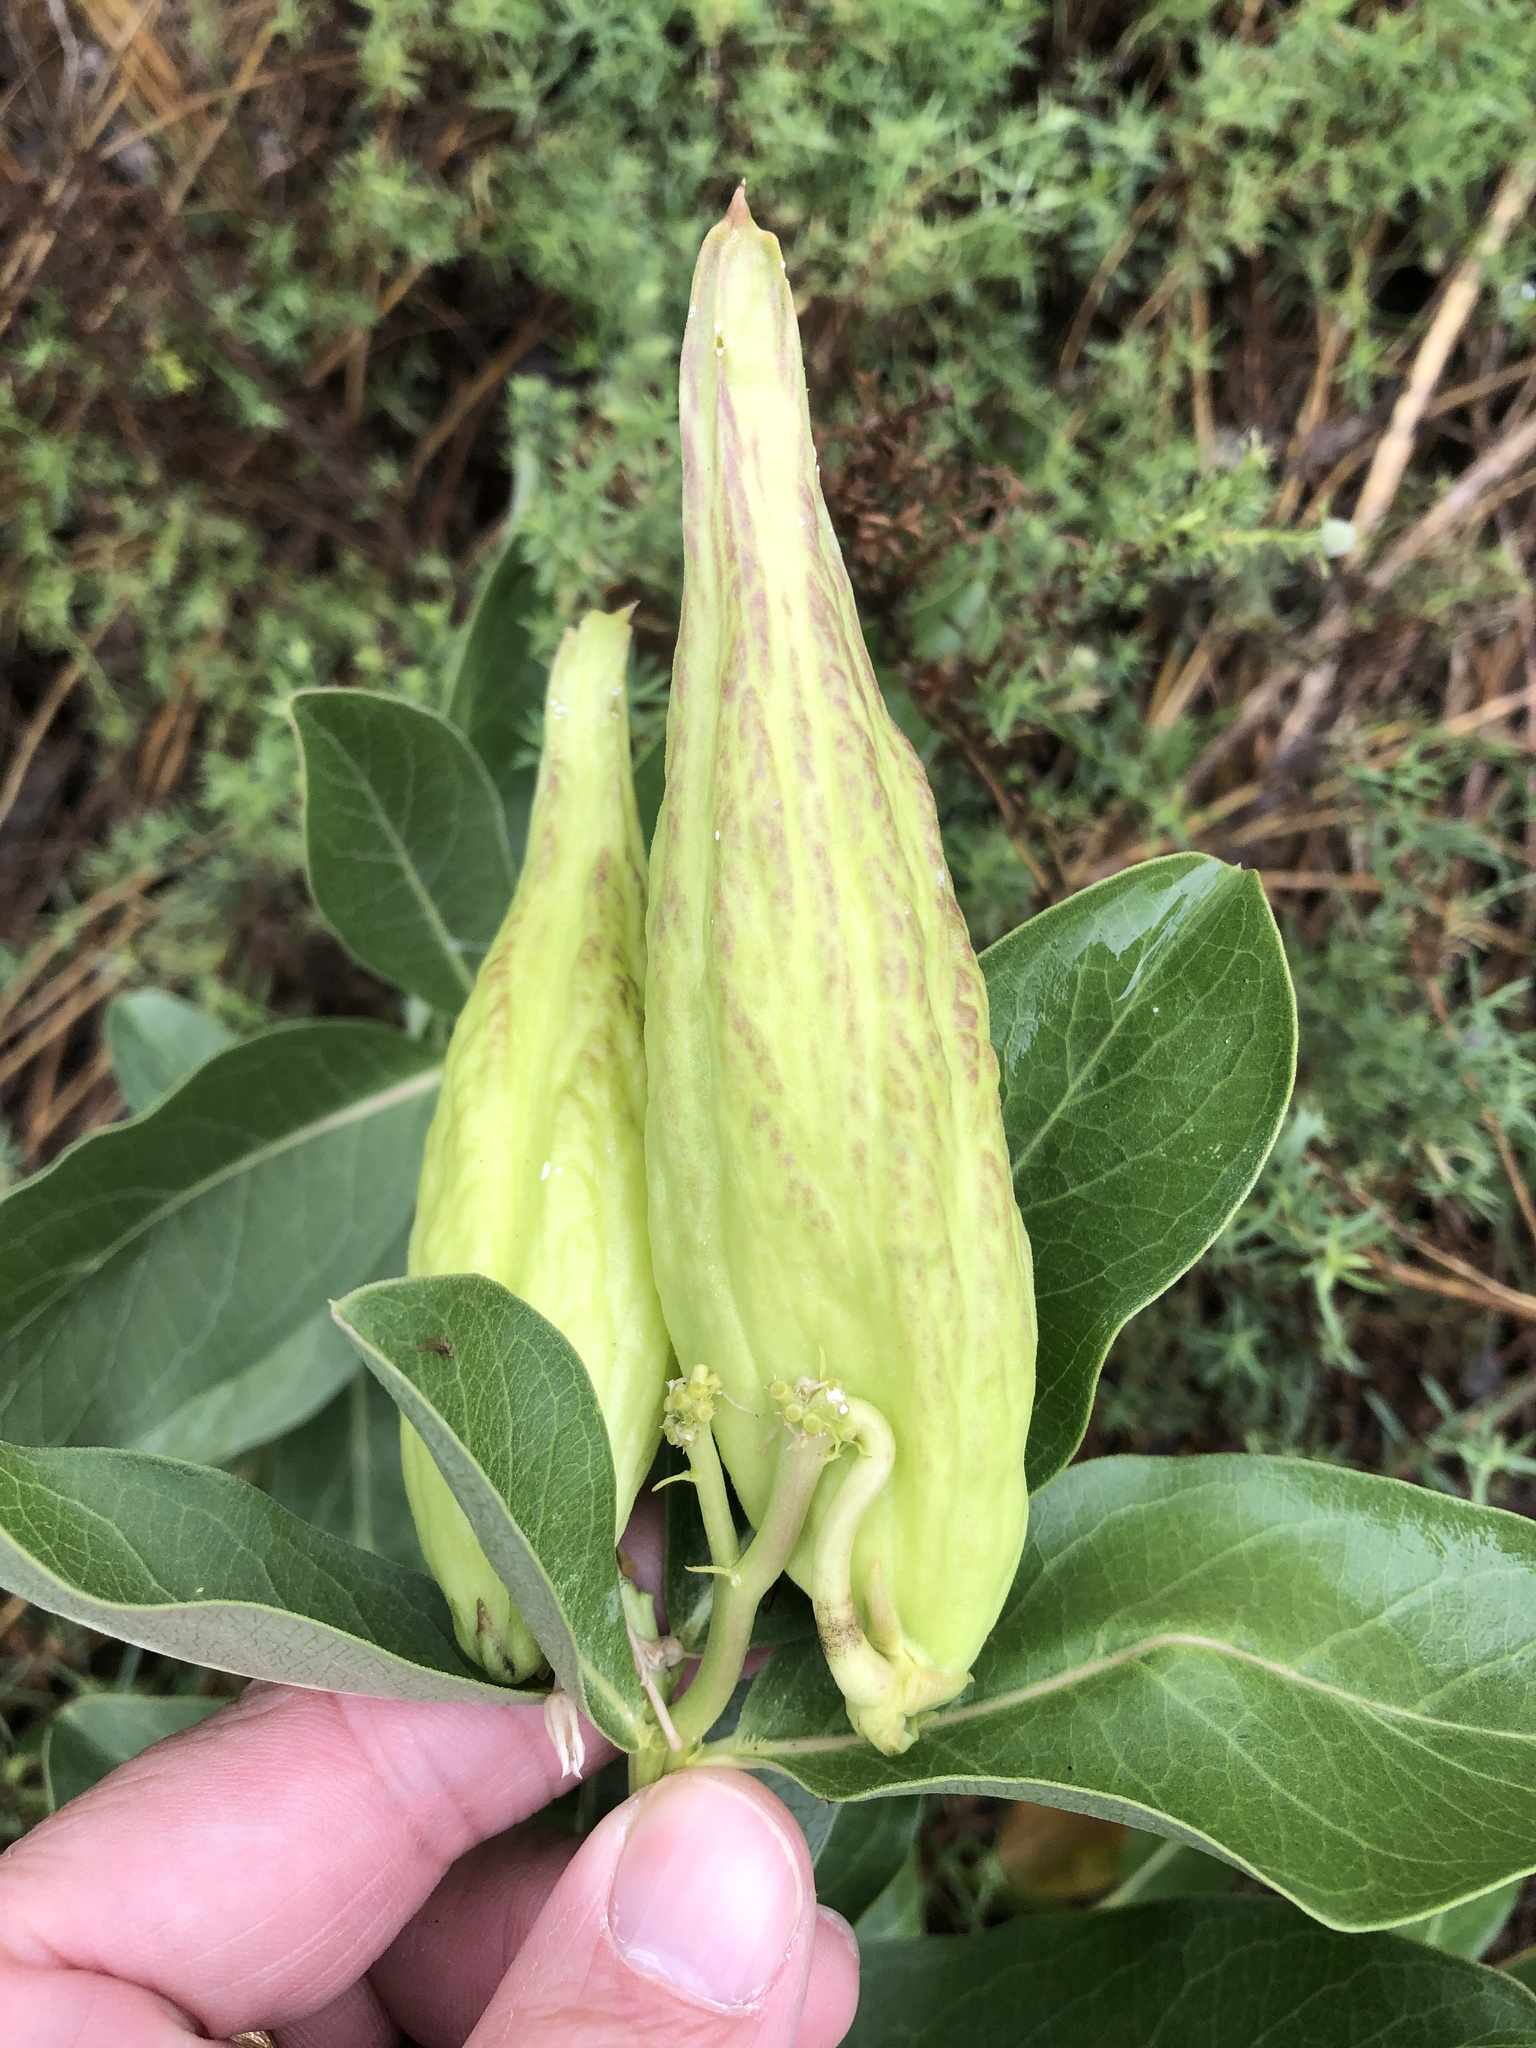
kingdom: Plantae
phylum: Tracheophyta
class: Magnoliopsida
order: Gentianales
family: Apocynaceae
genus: Asclepias
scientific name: Asclepias viridis
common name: Antelope-horns
